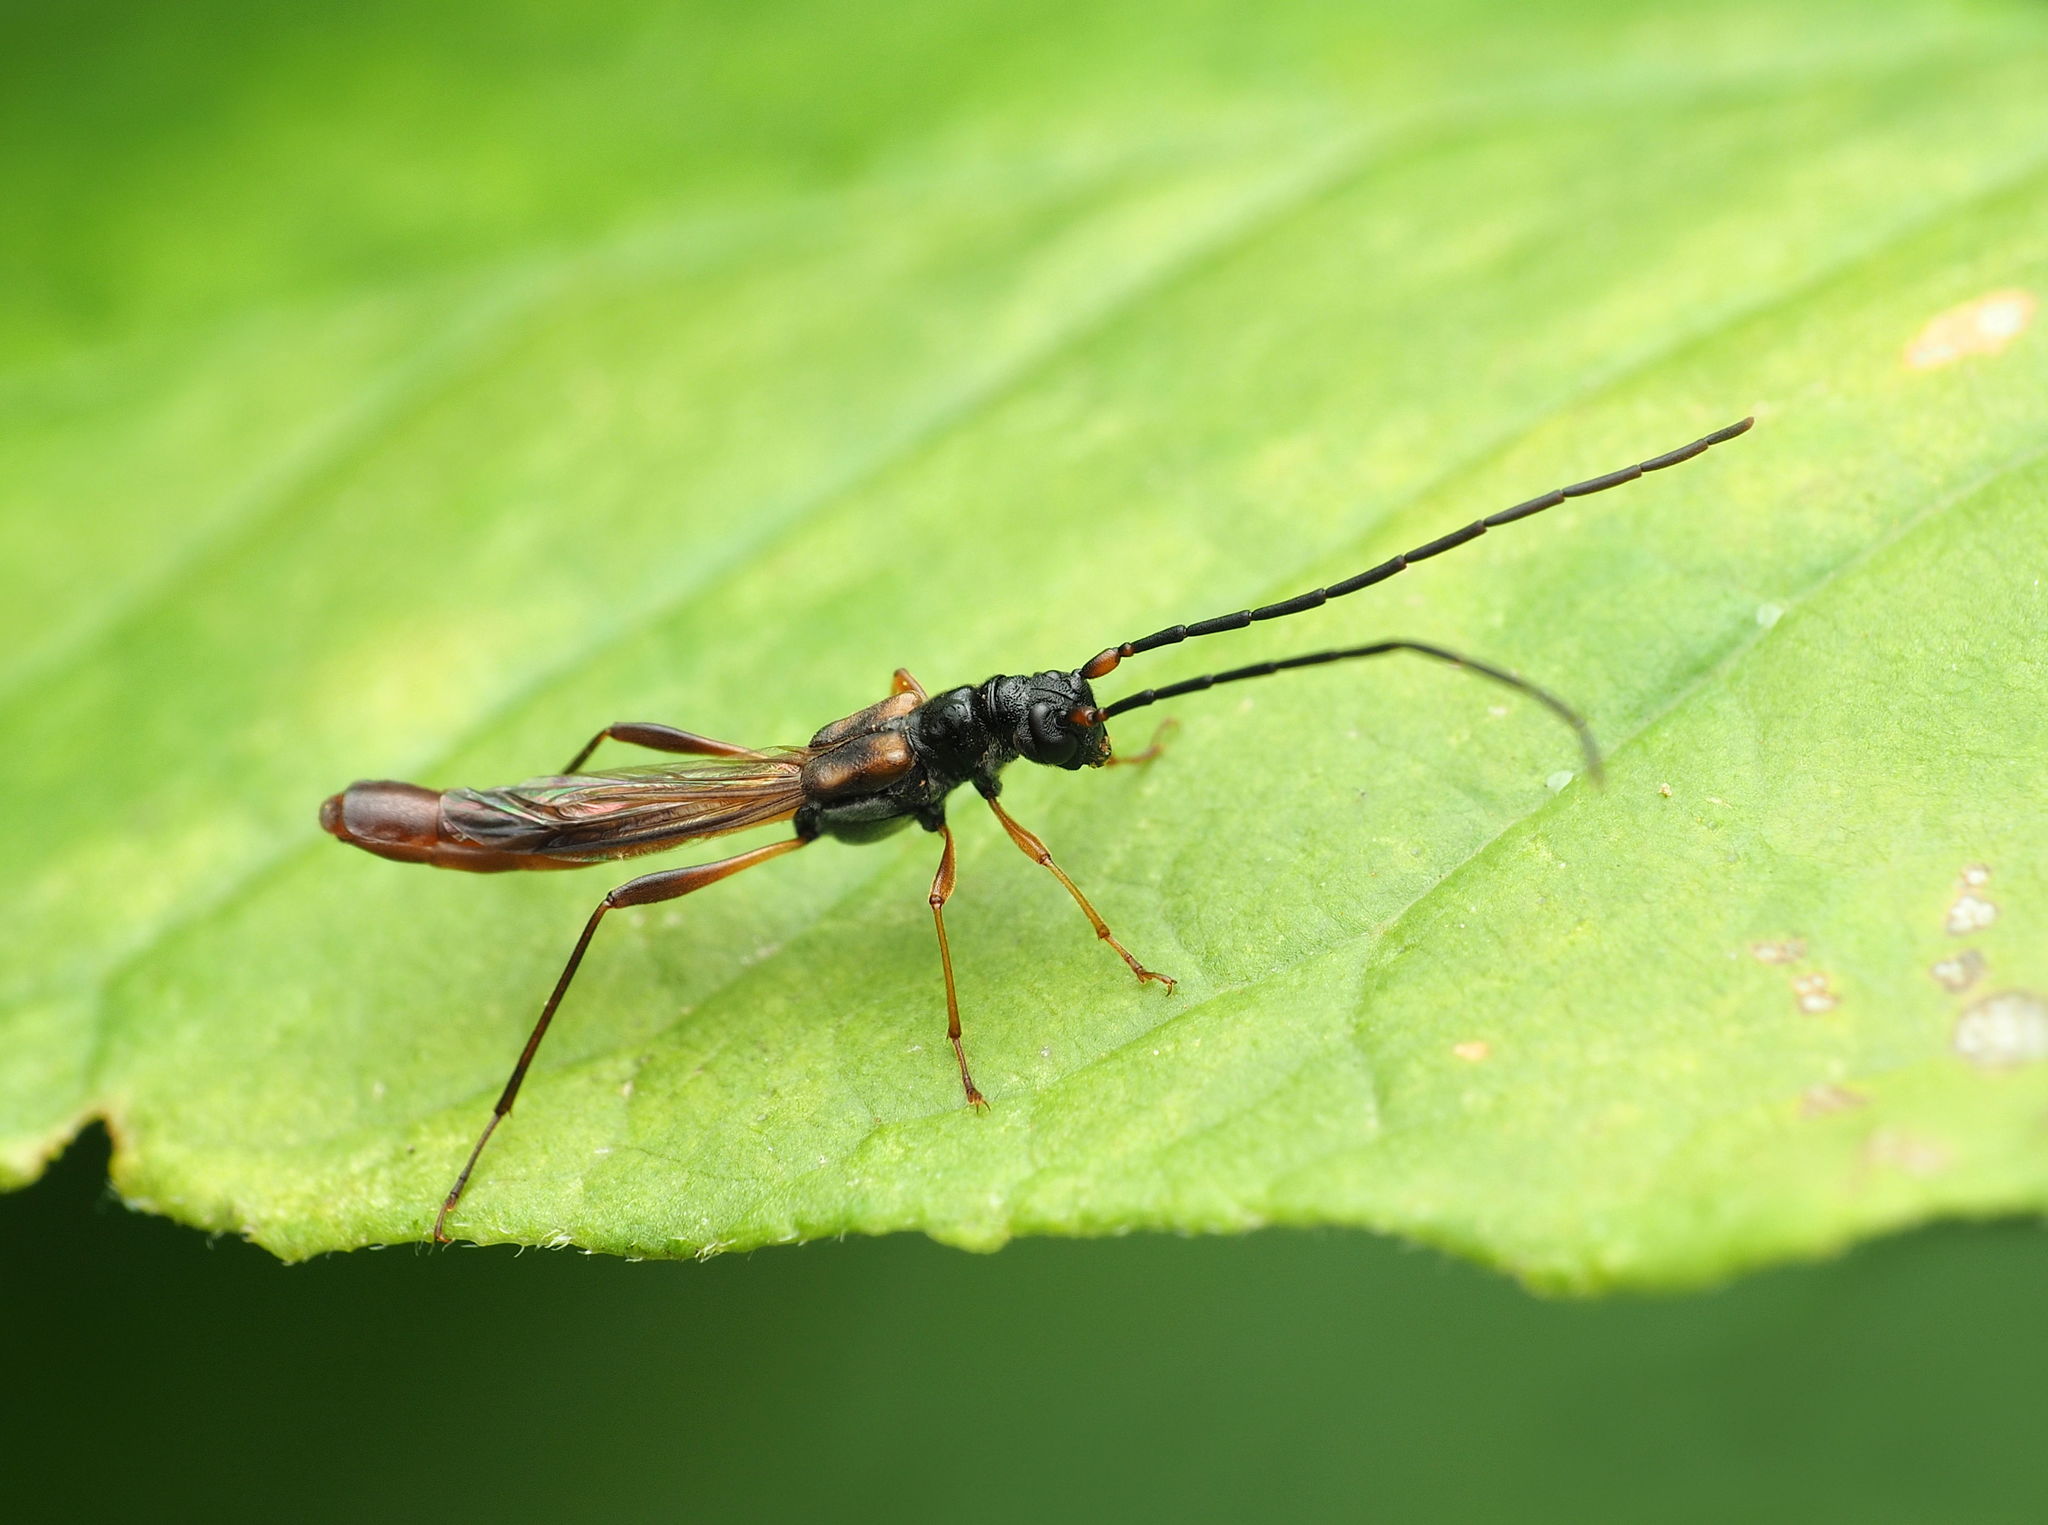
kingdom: Animalia
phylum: Arthropoda
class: Insecta
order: Coleoptera
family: Cerambycidae
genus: Necydalis
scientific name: Necydalis mellita
